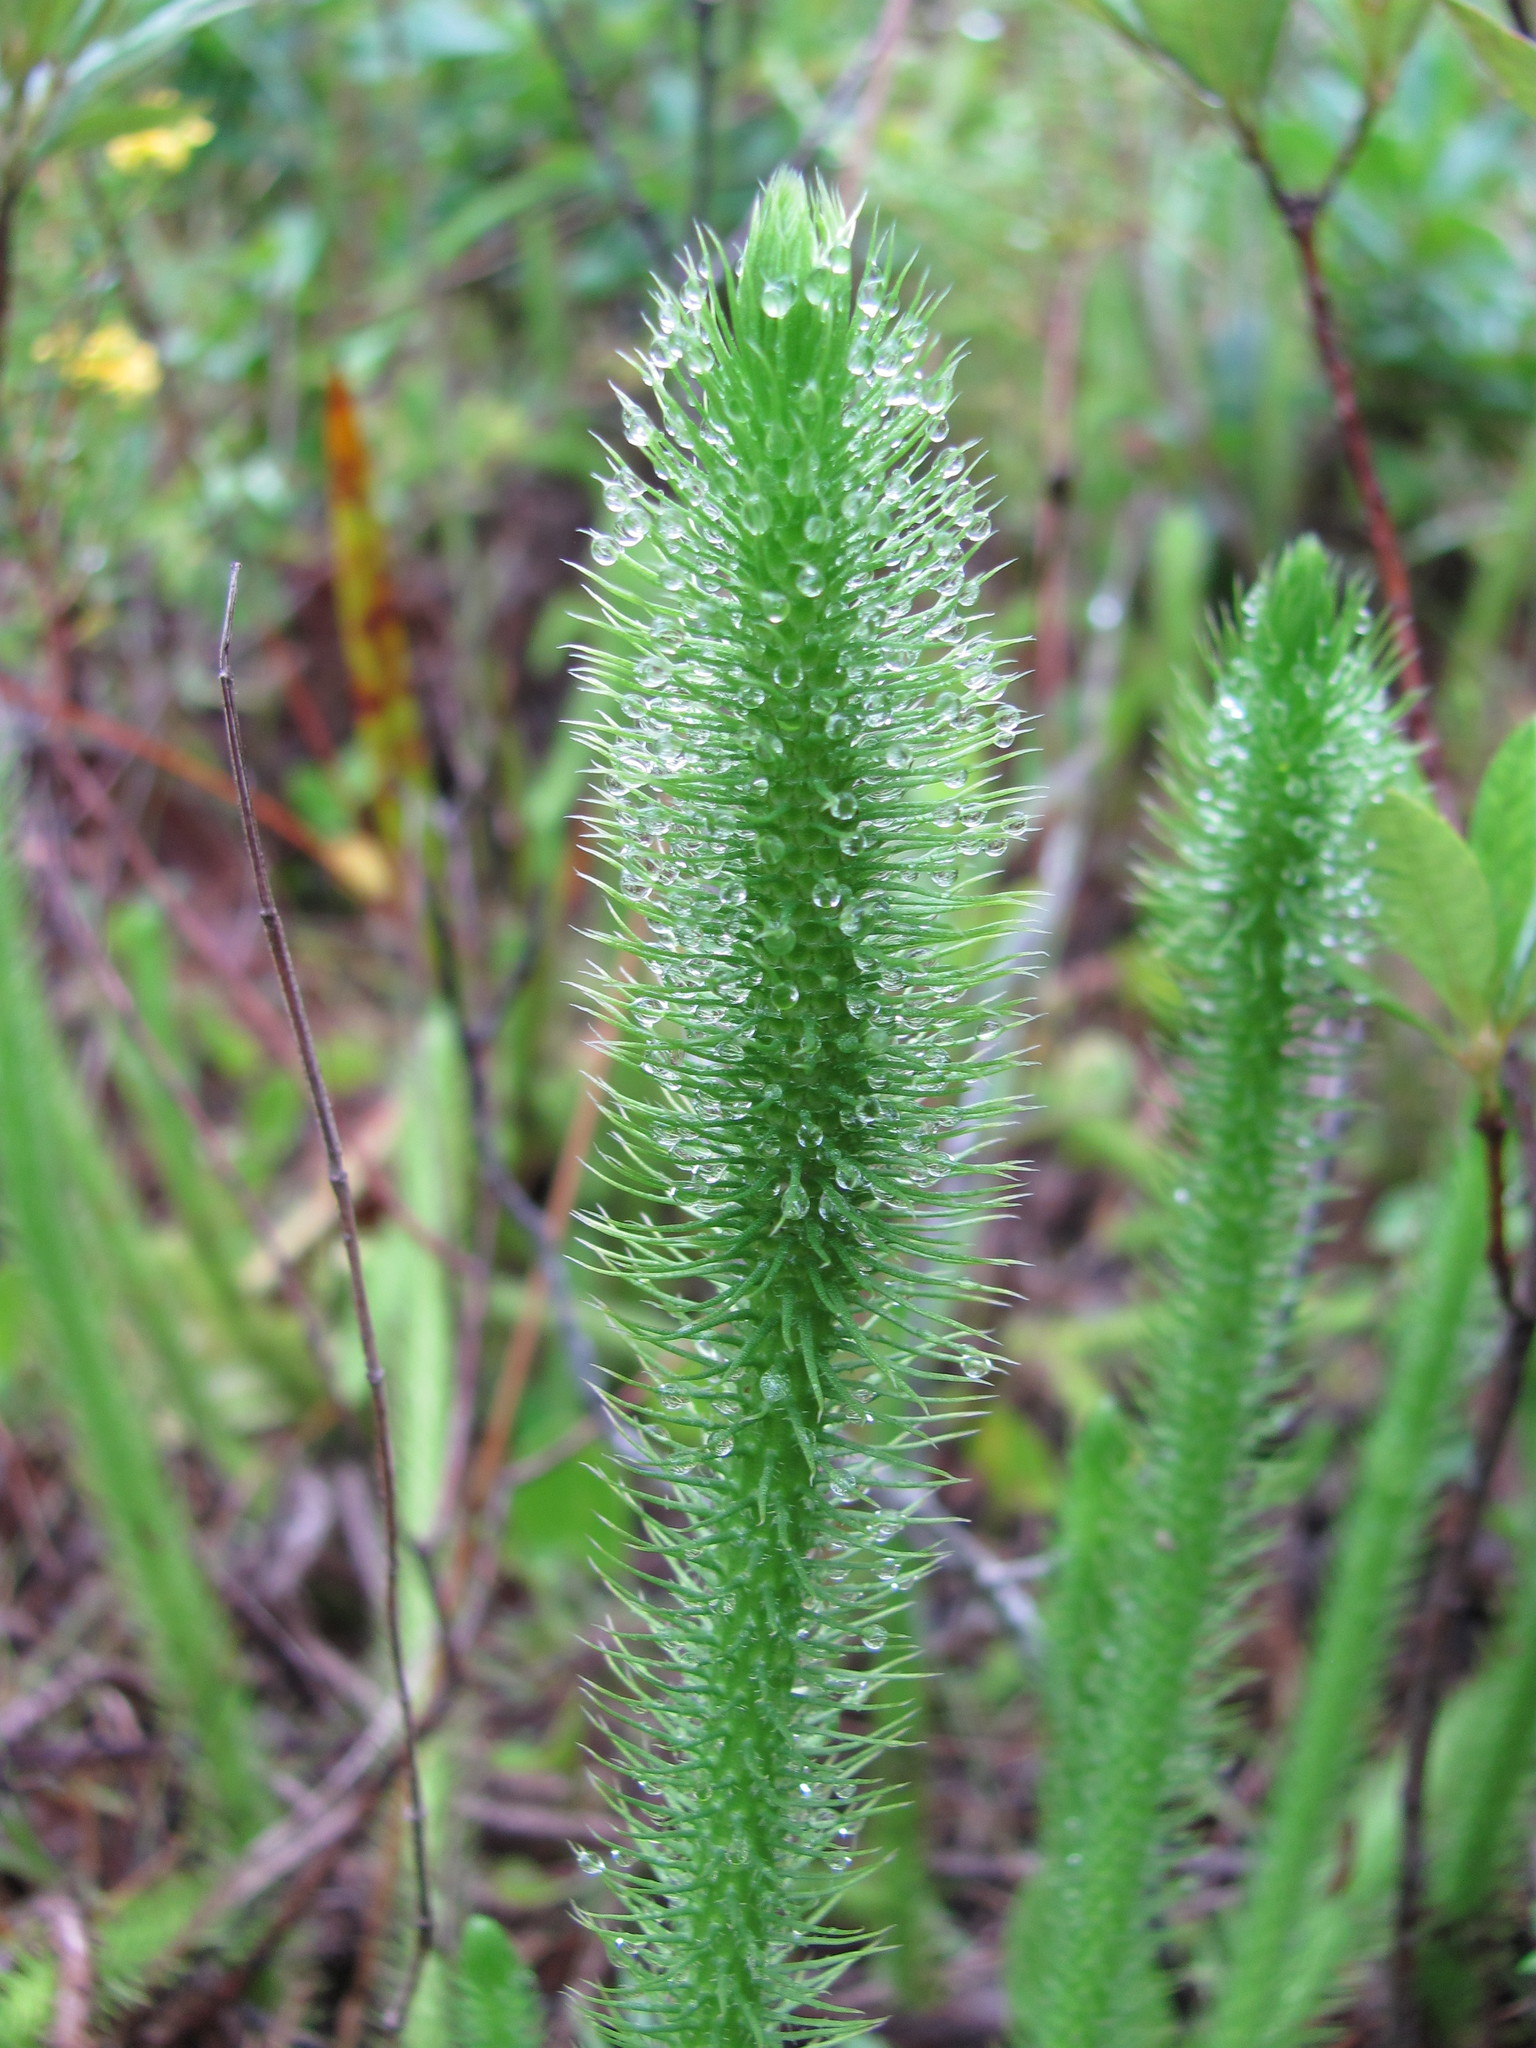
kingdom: Plantae
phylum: Tracheophyta
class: Lycopodiopsida
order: Lycopodiales
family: Lycopodiaceae
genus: Lycopodiella
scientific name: Lycopodiella alopecuroides
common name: Foxtail clubmoss
